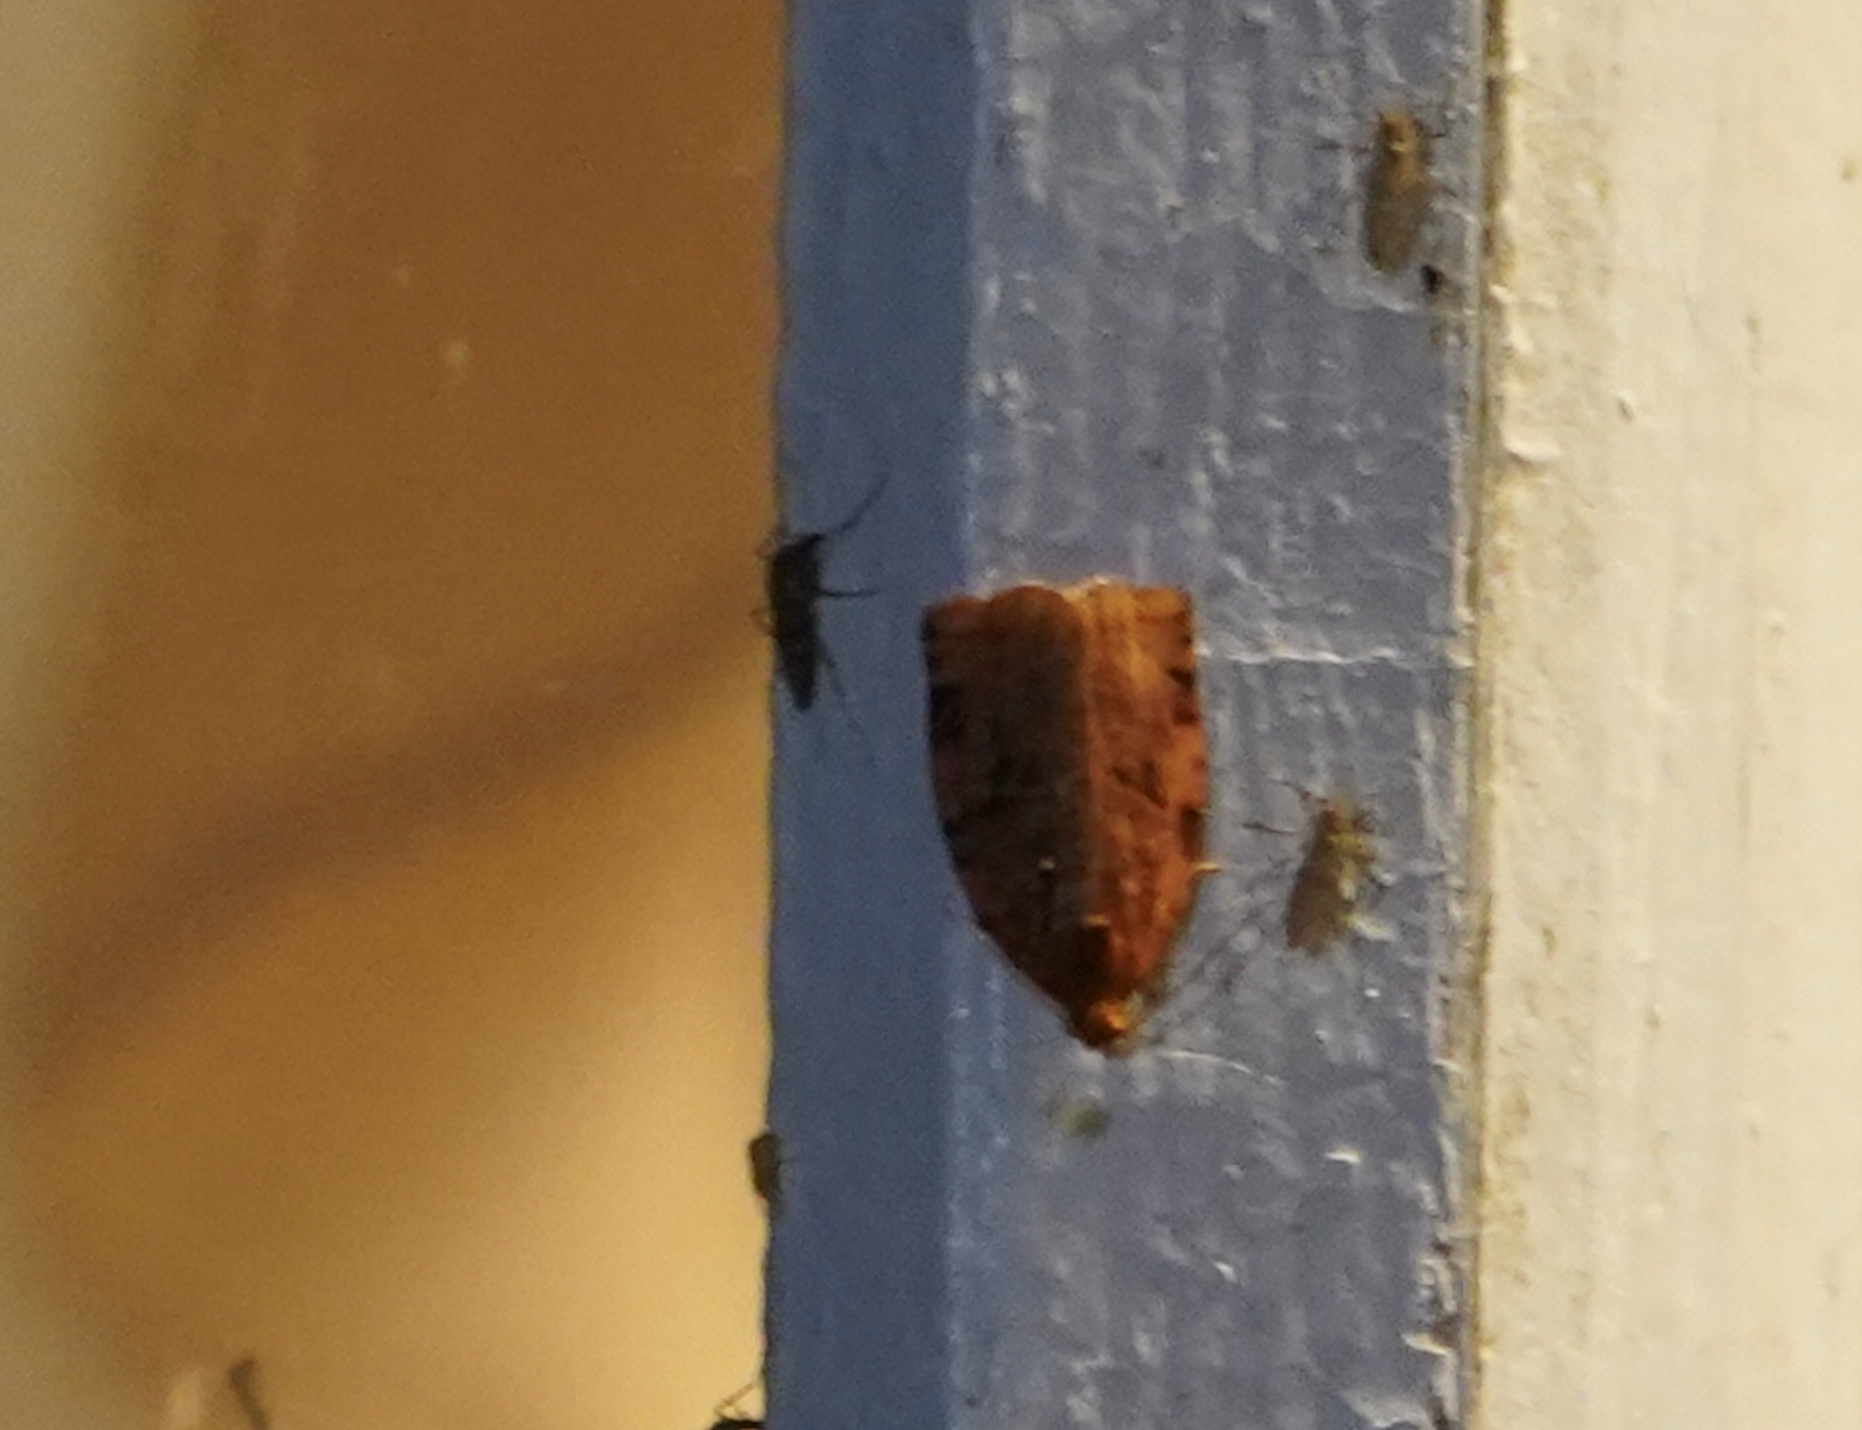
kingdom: Animalia
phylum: Arthropoda
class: Insecta
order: Lepidoptera
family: Tortricidae
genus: Archips
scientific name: Archips cerasivorana
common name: Uglynest caterpillar
